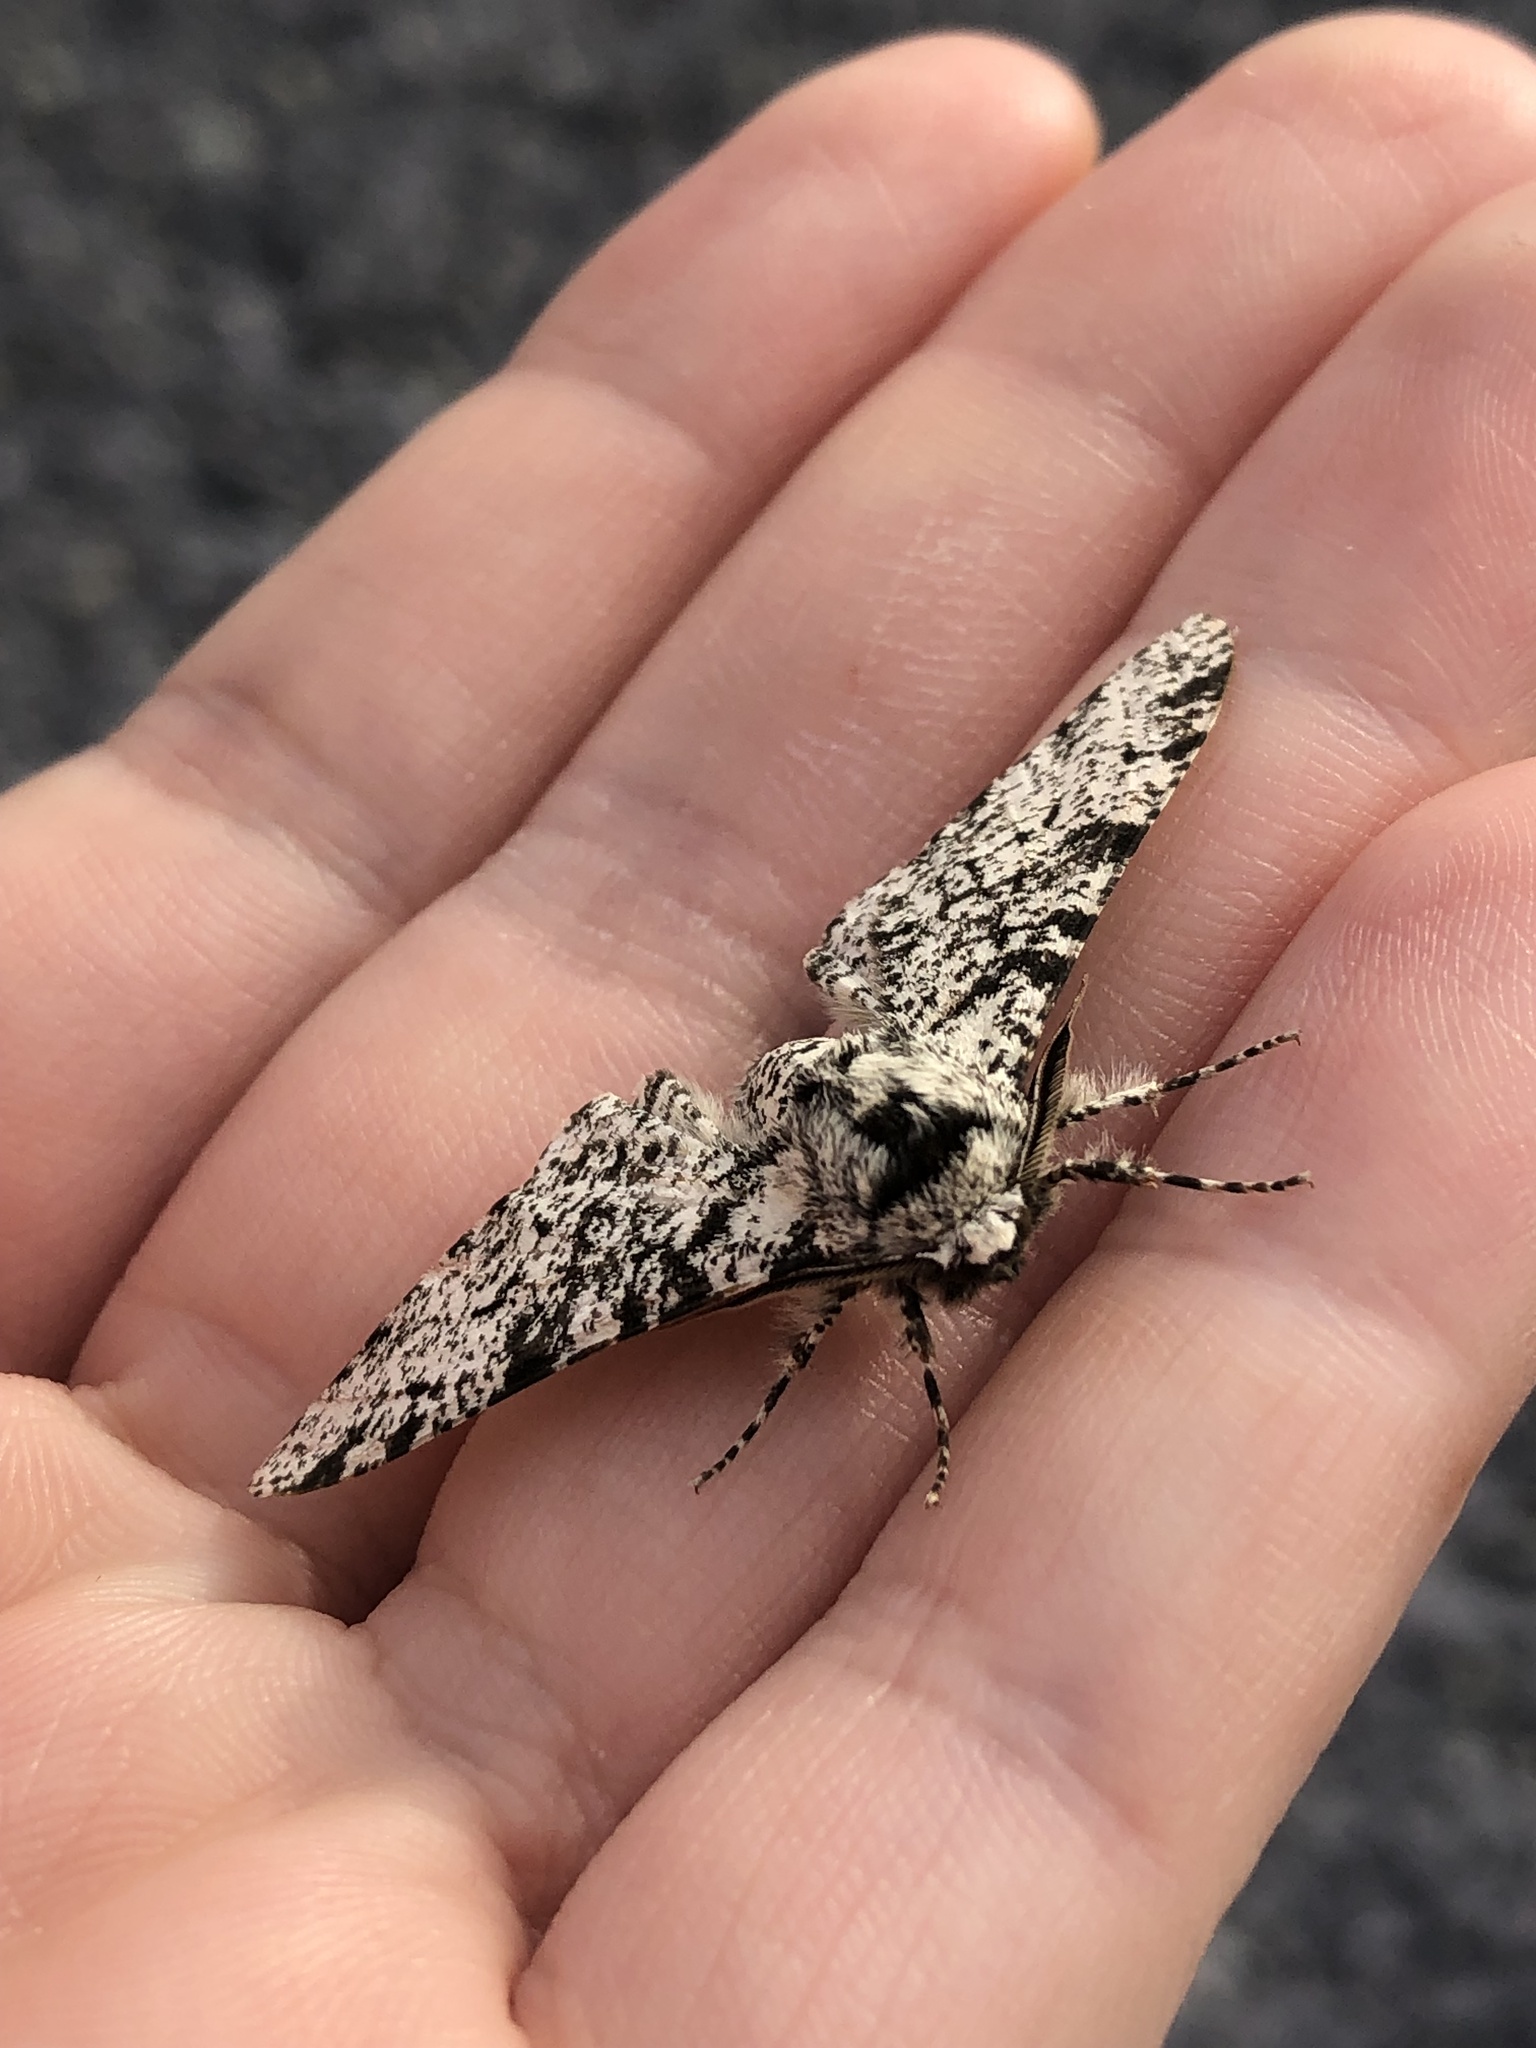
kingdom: Animalia
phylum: Arthropoda
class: Insecta
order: Lepidoptera
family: Geometridae
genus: Biston
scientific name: Biston betularia
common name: Peppered moth
